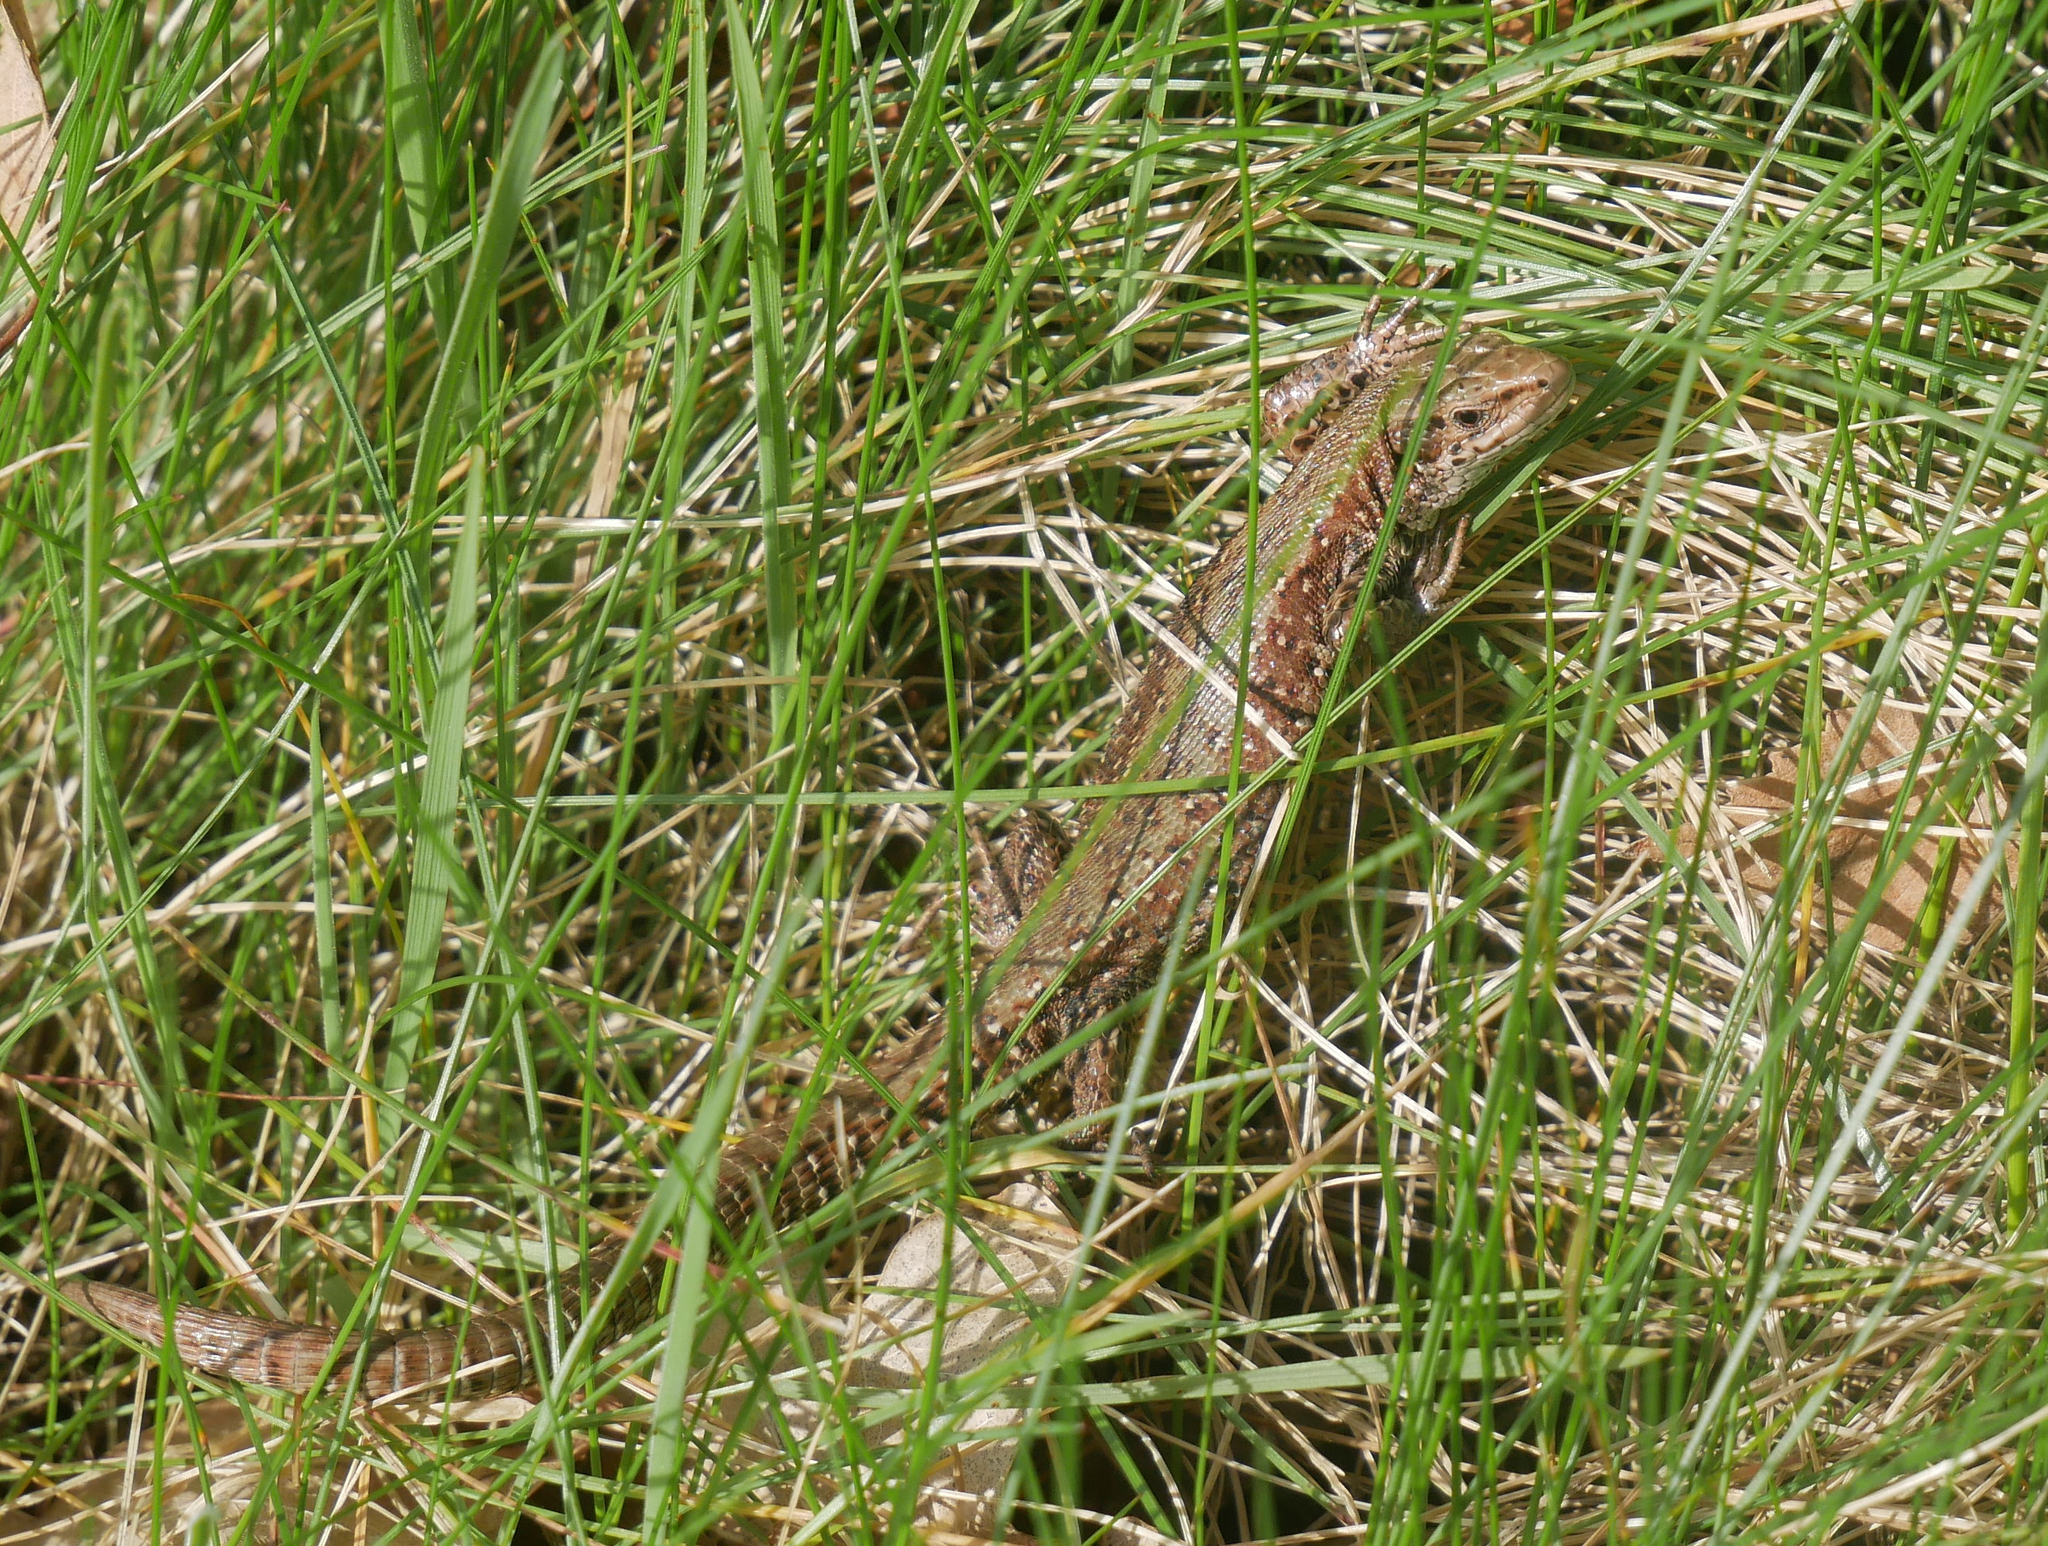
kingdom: Animalia
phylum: Chordata
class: Squamata
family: Lacertidae
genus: Zootoca
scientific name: Zootoca vivipara
